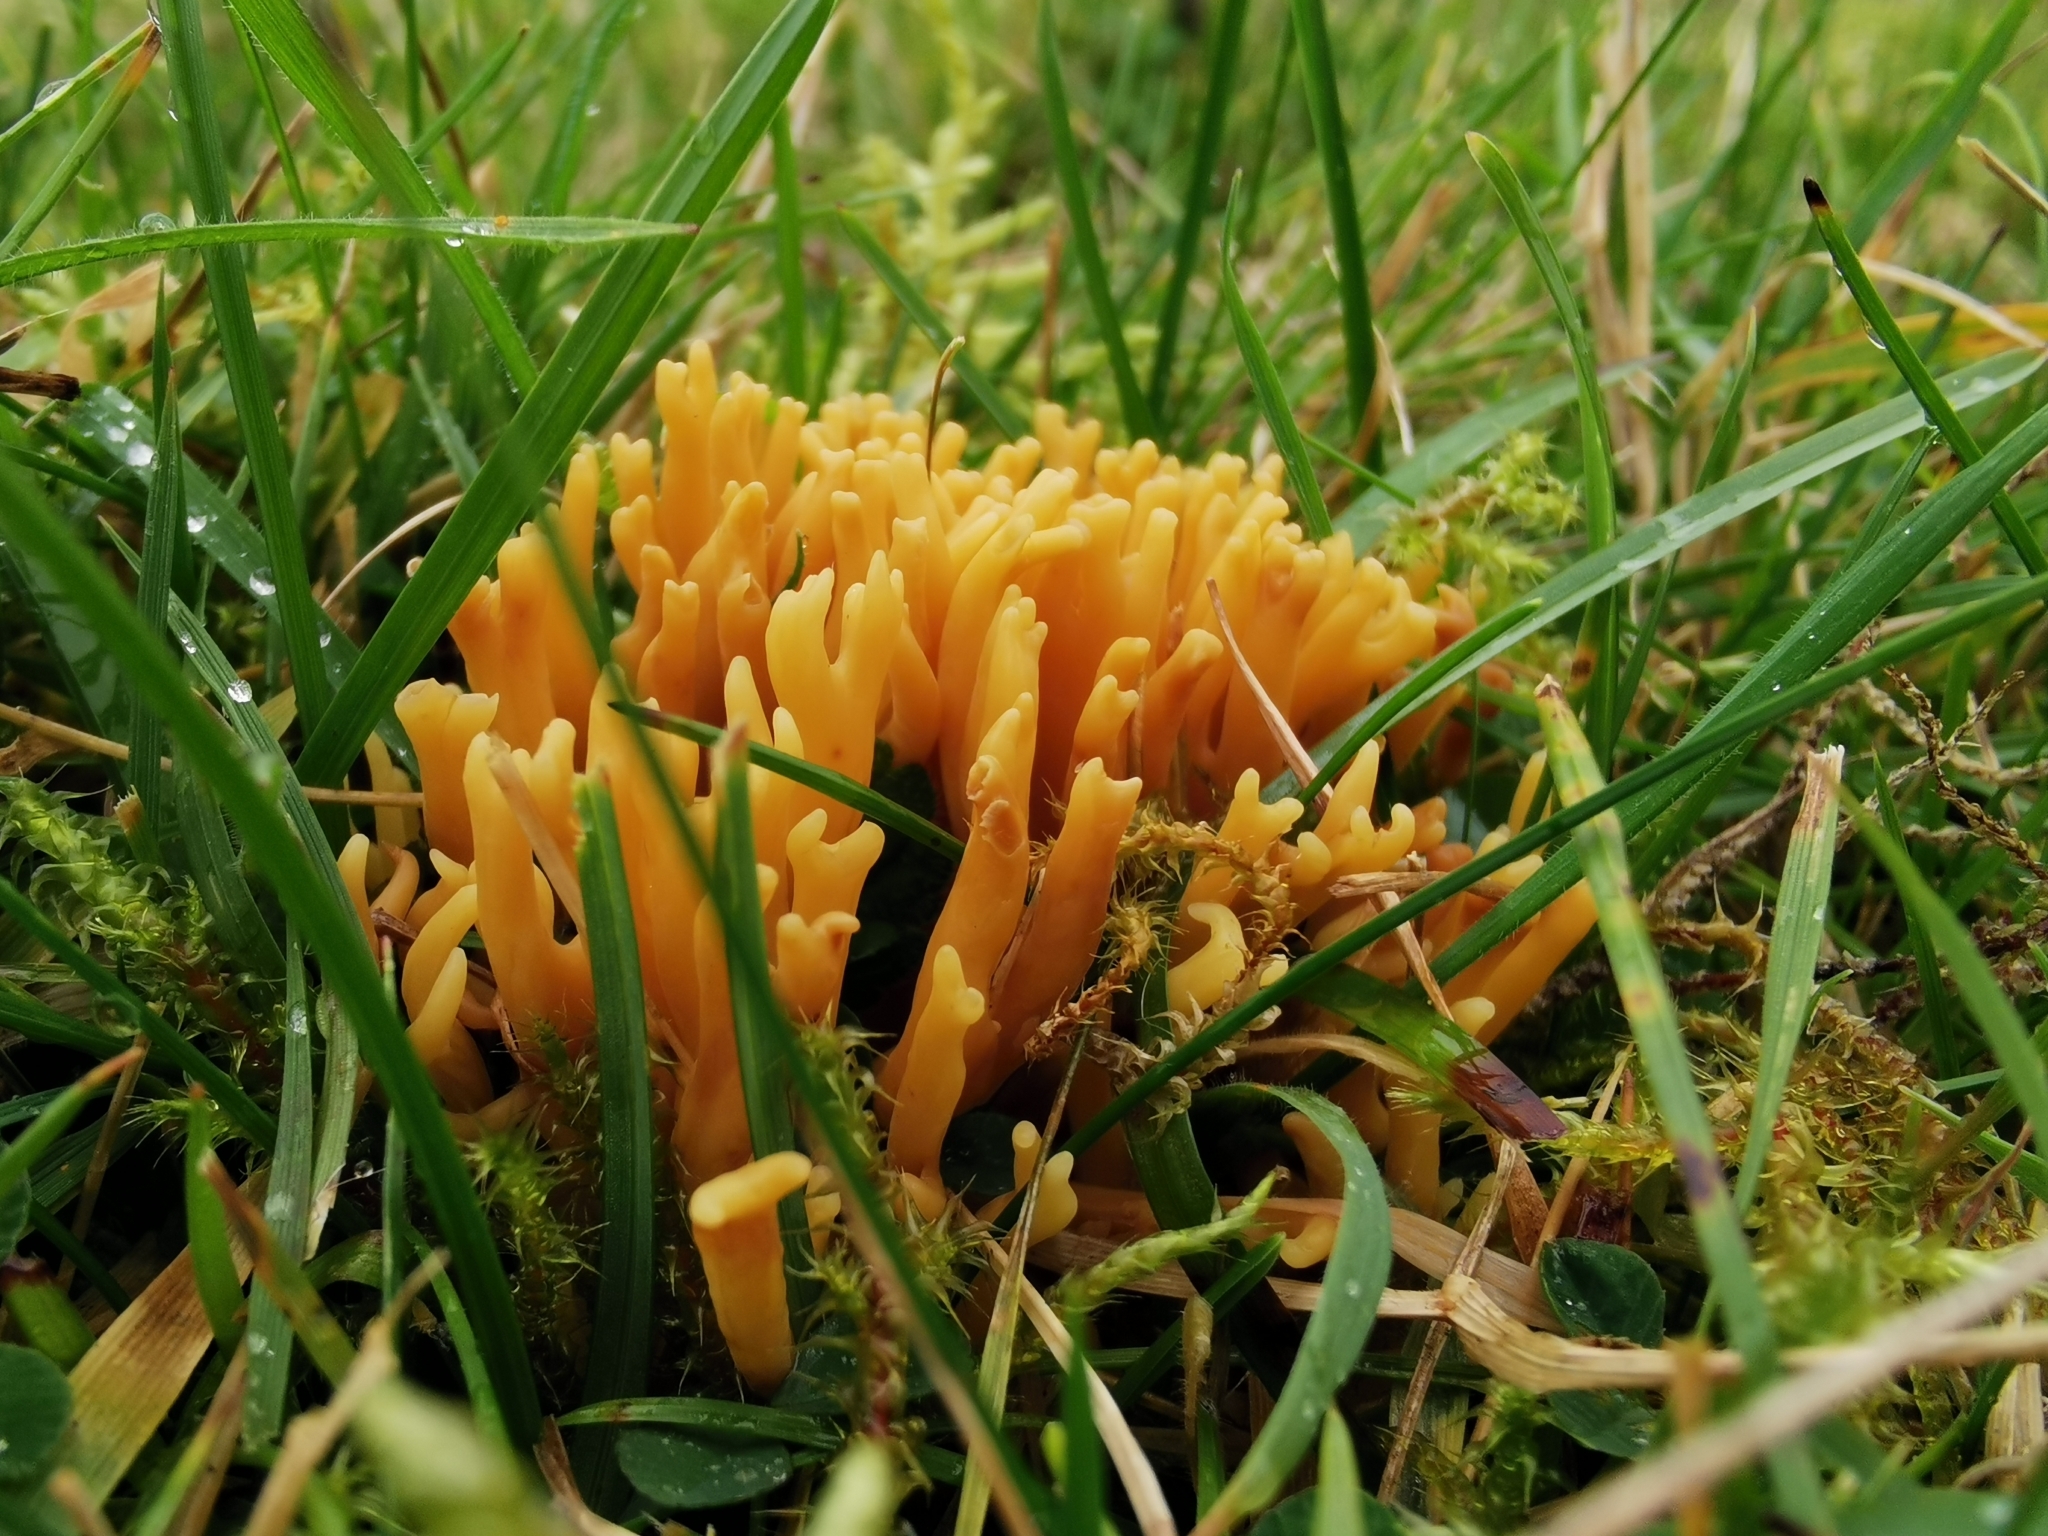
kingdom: Fungi
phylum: Basidiomycota
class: Agaricomycetes
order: Agaricales
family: Clavariaceae
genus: Clavulinopsis
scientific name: Clavulinopsis corniculata
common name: Meadow coral
